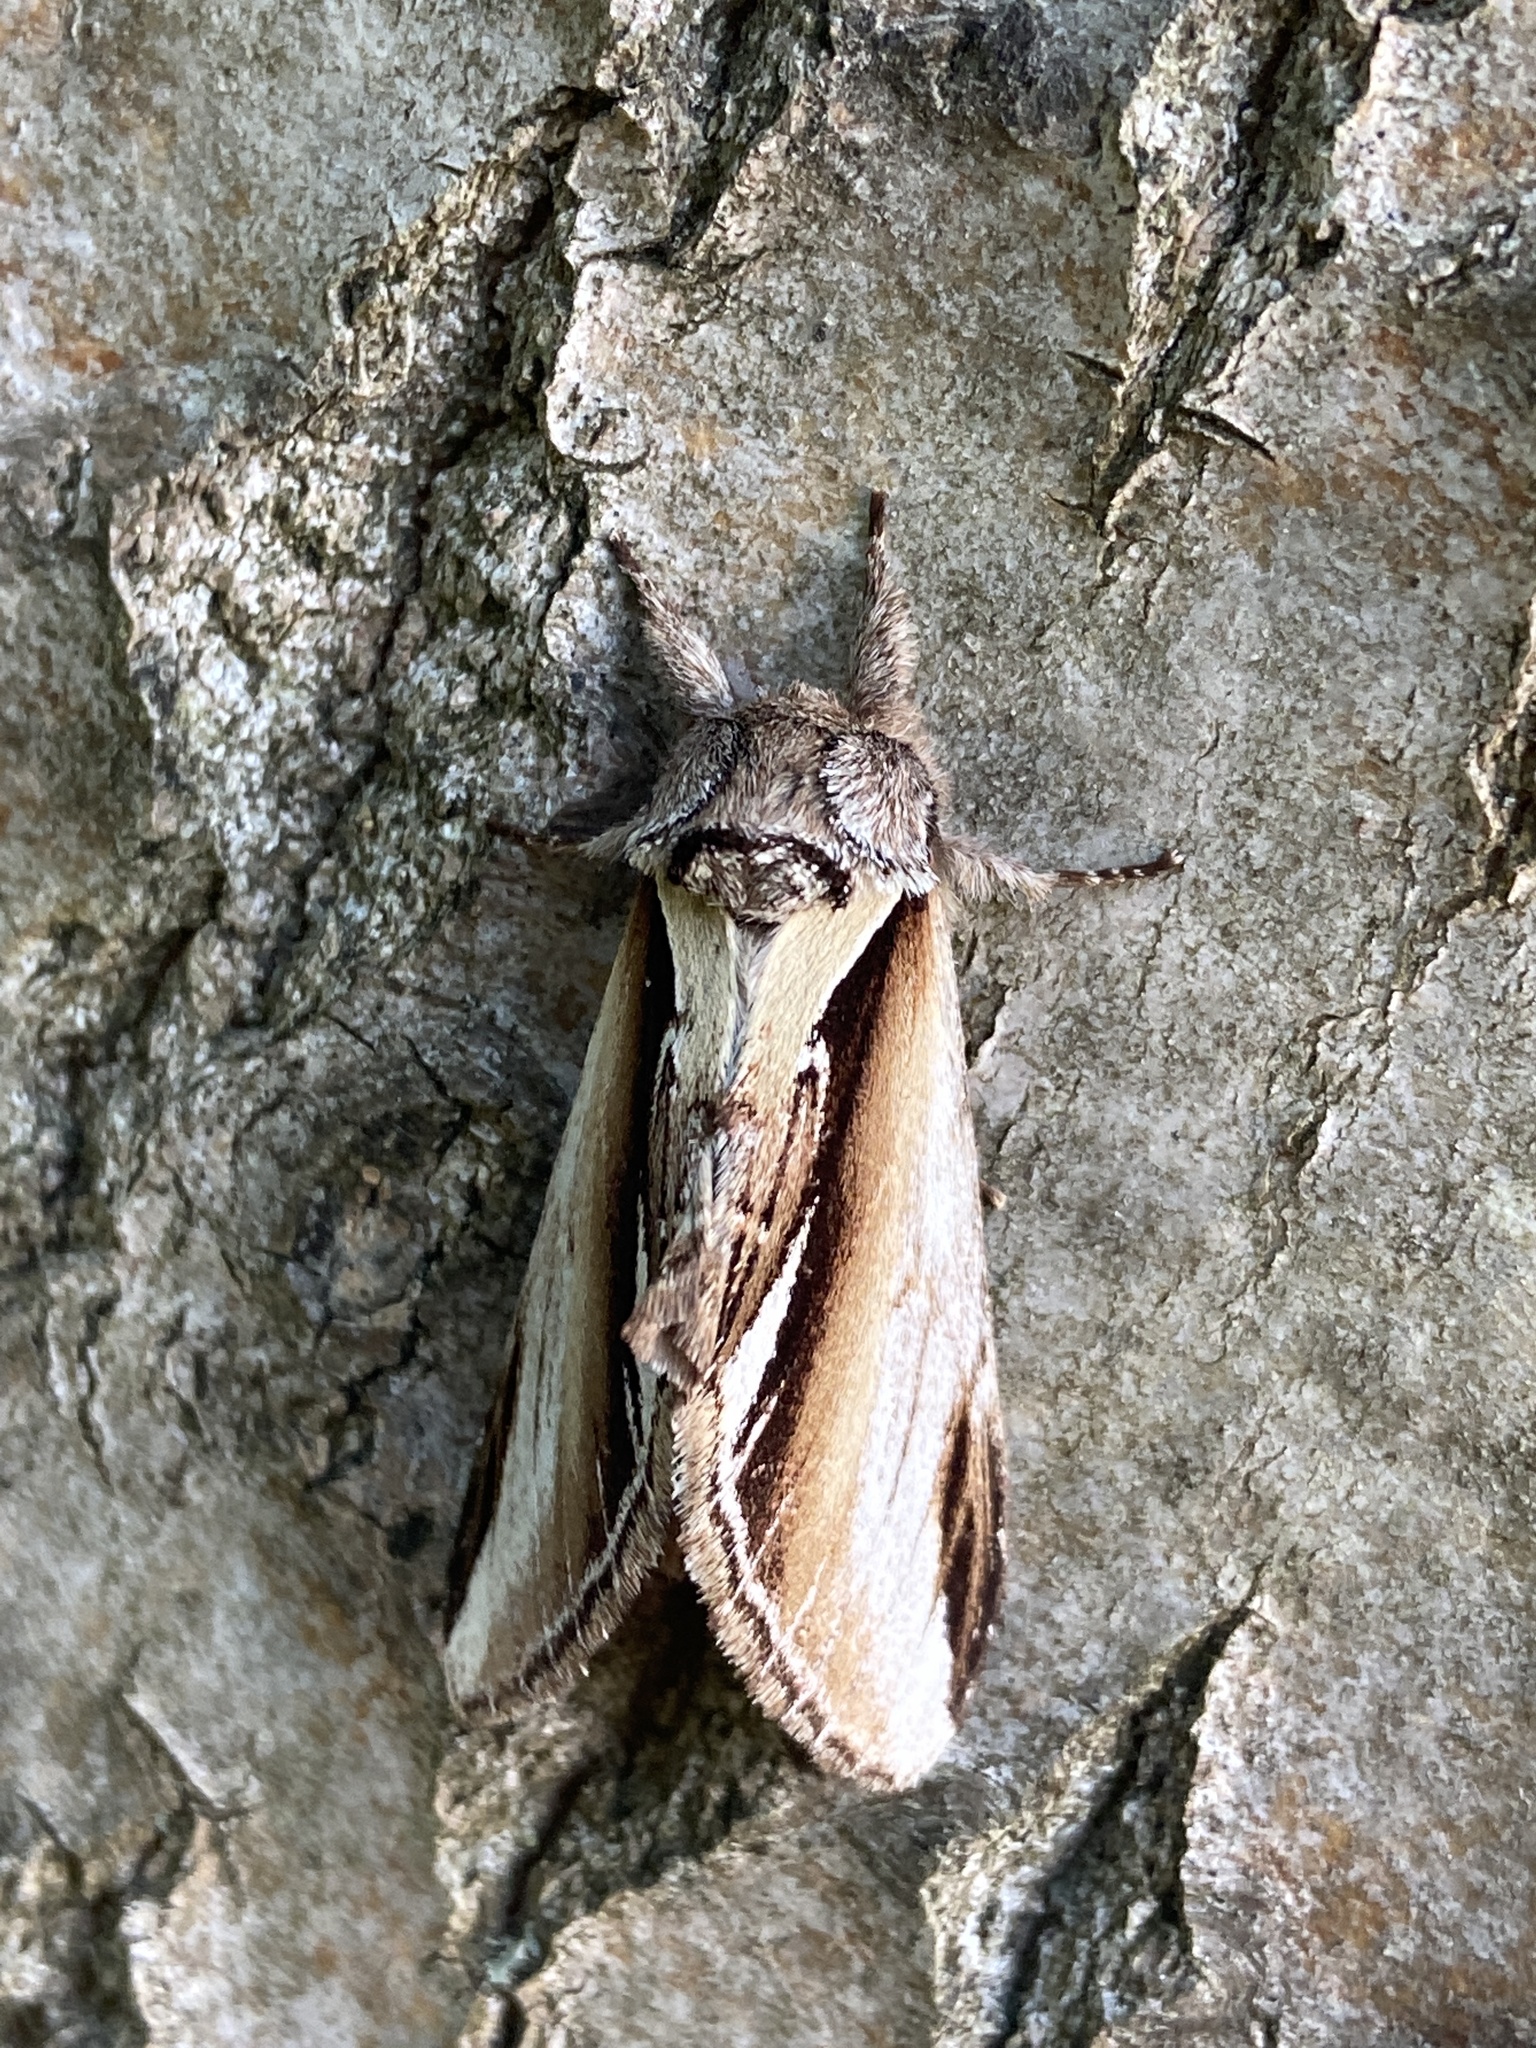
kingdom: Animalia
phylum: Arthropoda
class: Insecta
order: Lepidoptera
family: Notodontidae
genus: Pheosia
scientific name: Pheosia gnoma
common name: Lesser swallow prominent
